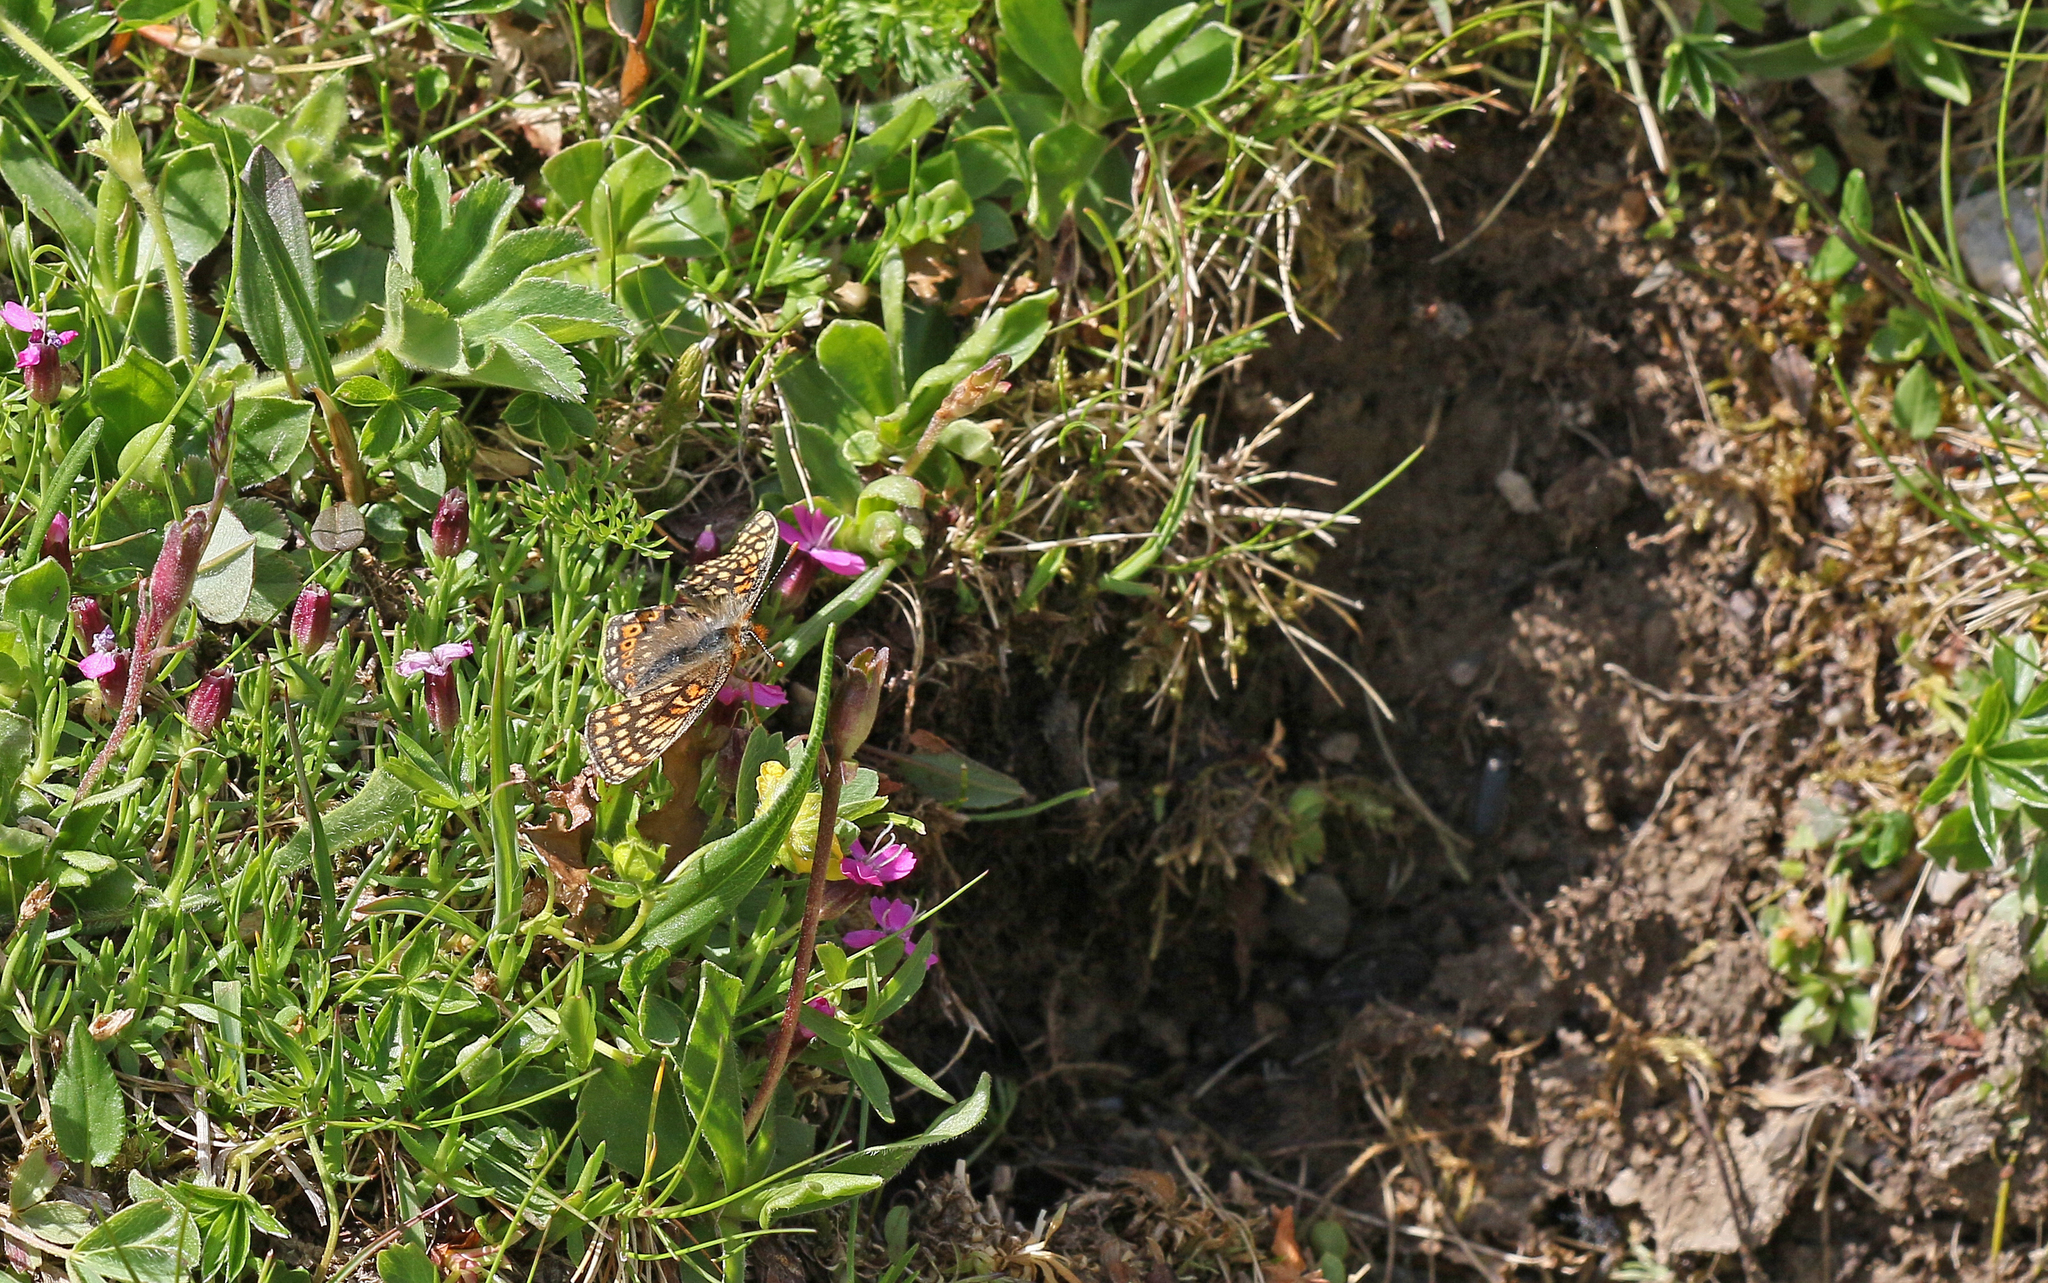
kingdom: Animalia
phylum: Arthropoda
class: Insecta
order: Lepidoptera
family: Nymphalidae
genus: Euphydryas
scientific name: Euphydryas aurinia
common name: Marsh fritillary
